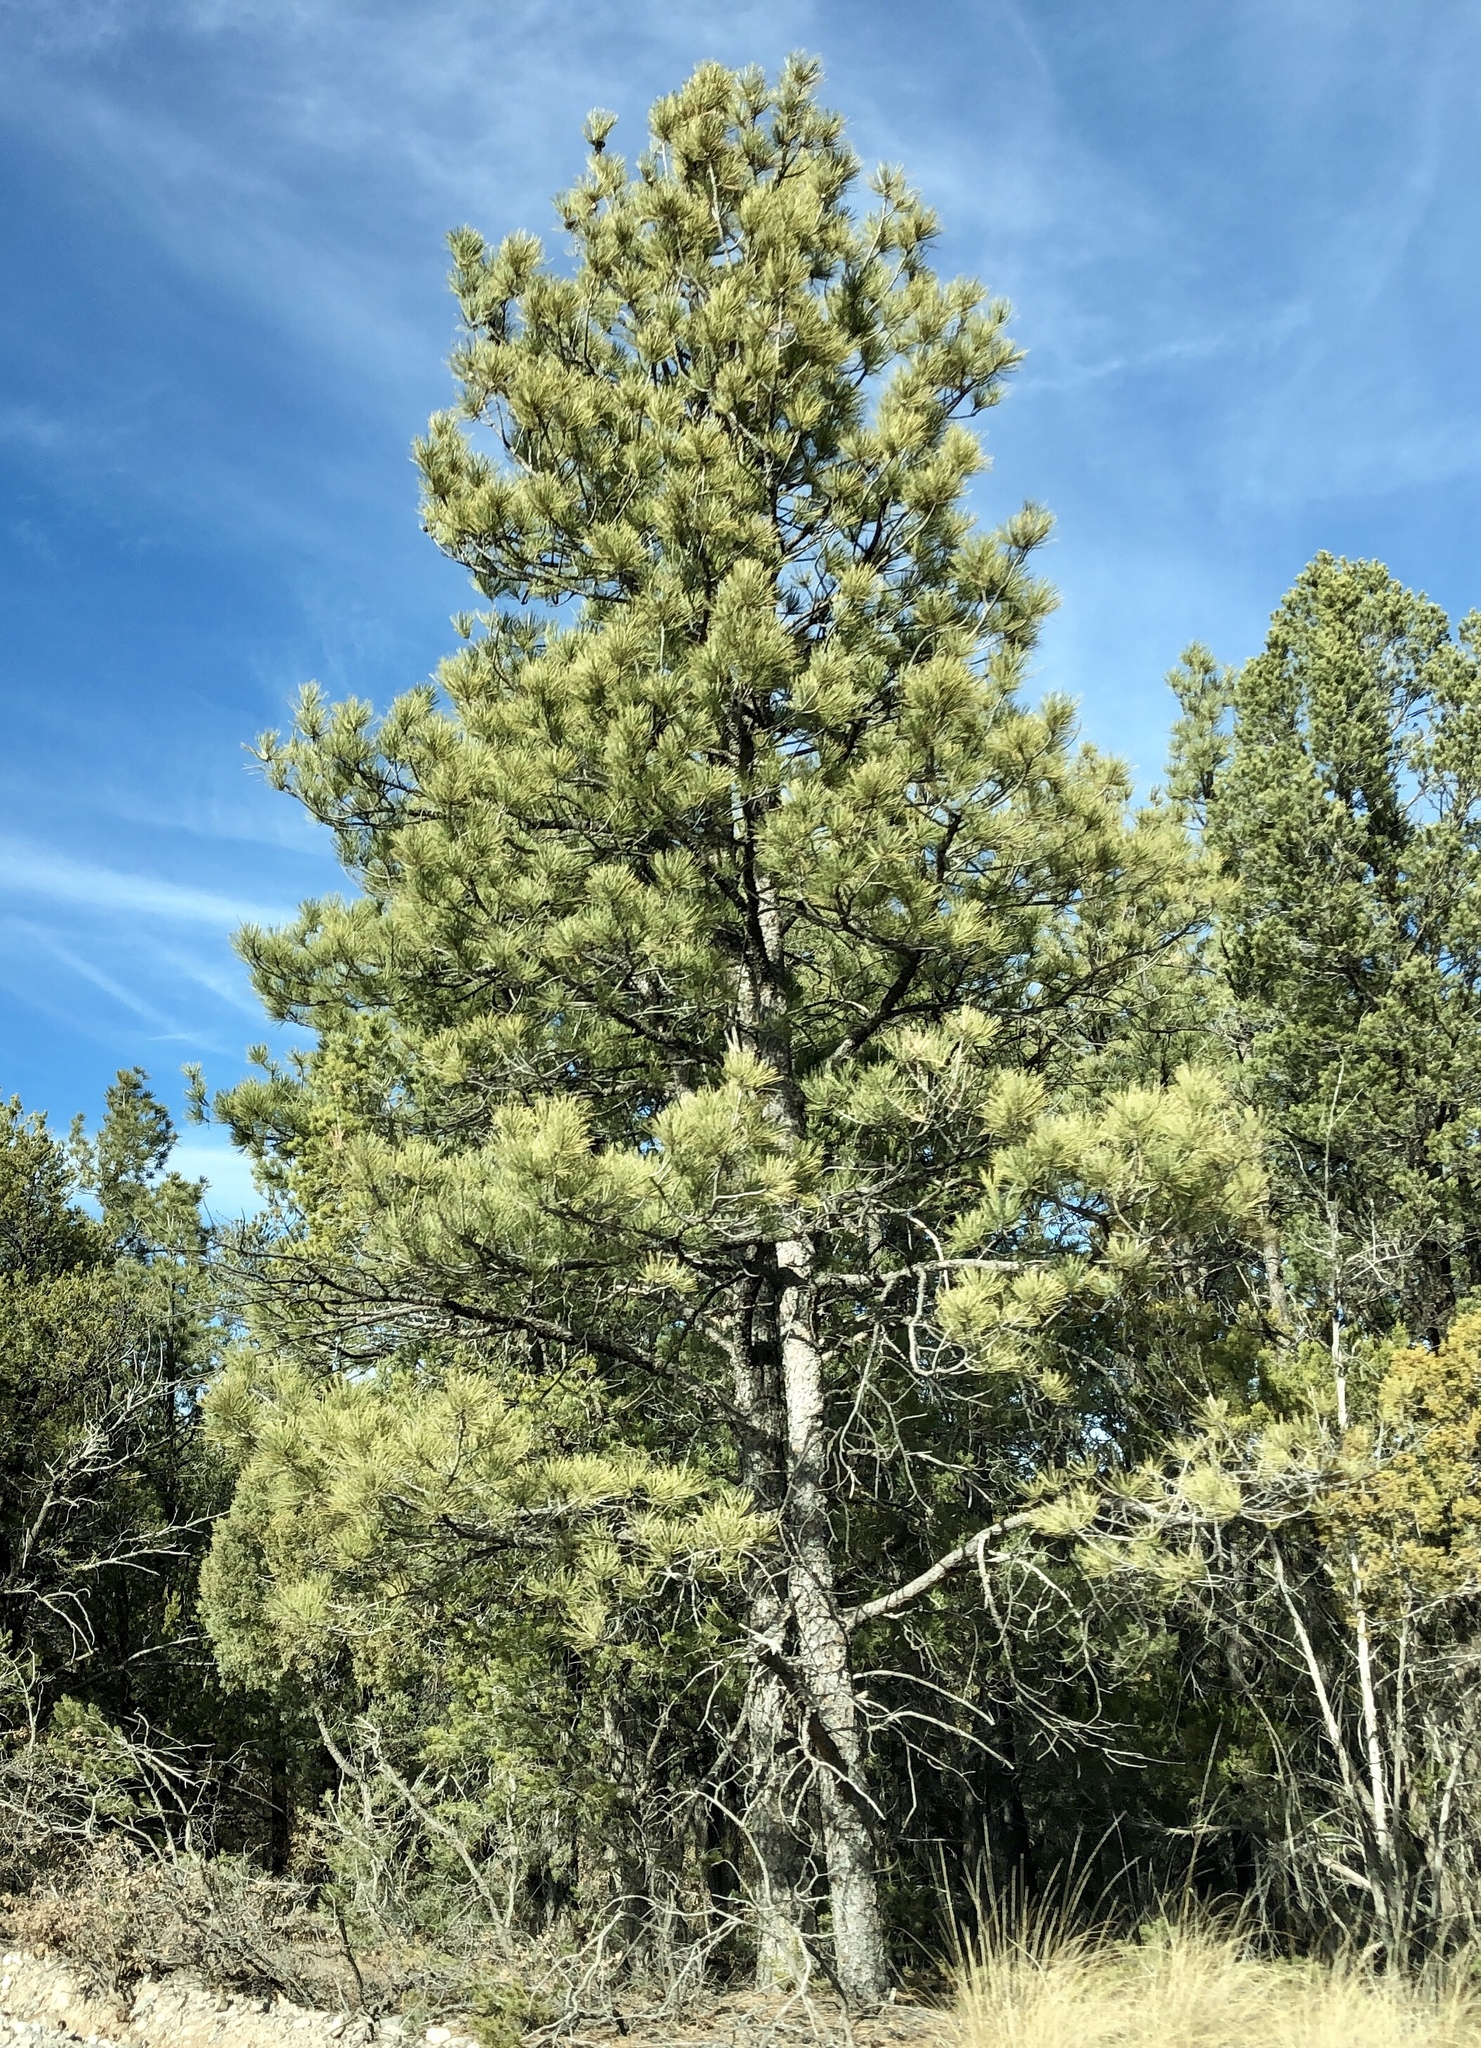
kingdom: Plantae
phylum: Tracheophyta
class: Pinopsida
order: Pinales
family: Pinaceae
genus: Pinus
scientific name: Pinus ponderosa
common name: Western yellow-pine
